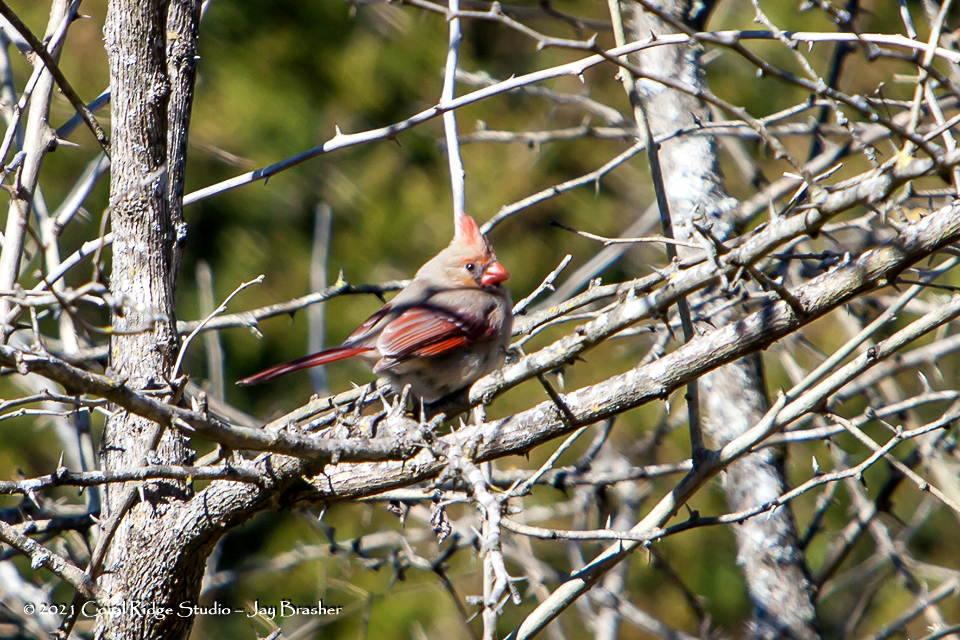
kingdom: Animalia
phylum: Chordata
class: Aves
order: Passeriformes
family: Cardinalidae
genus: Cardinalis
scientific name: Cardinalis cardinalis
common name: Northern cardinal
